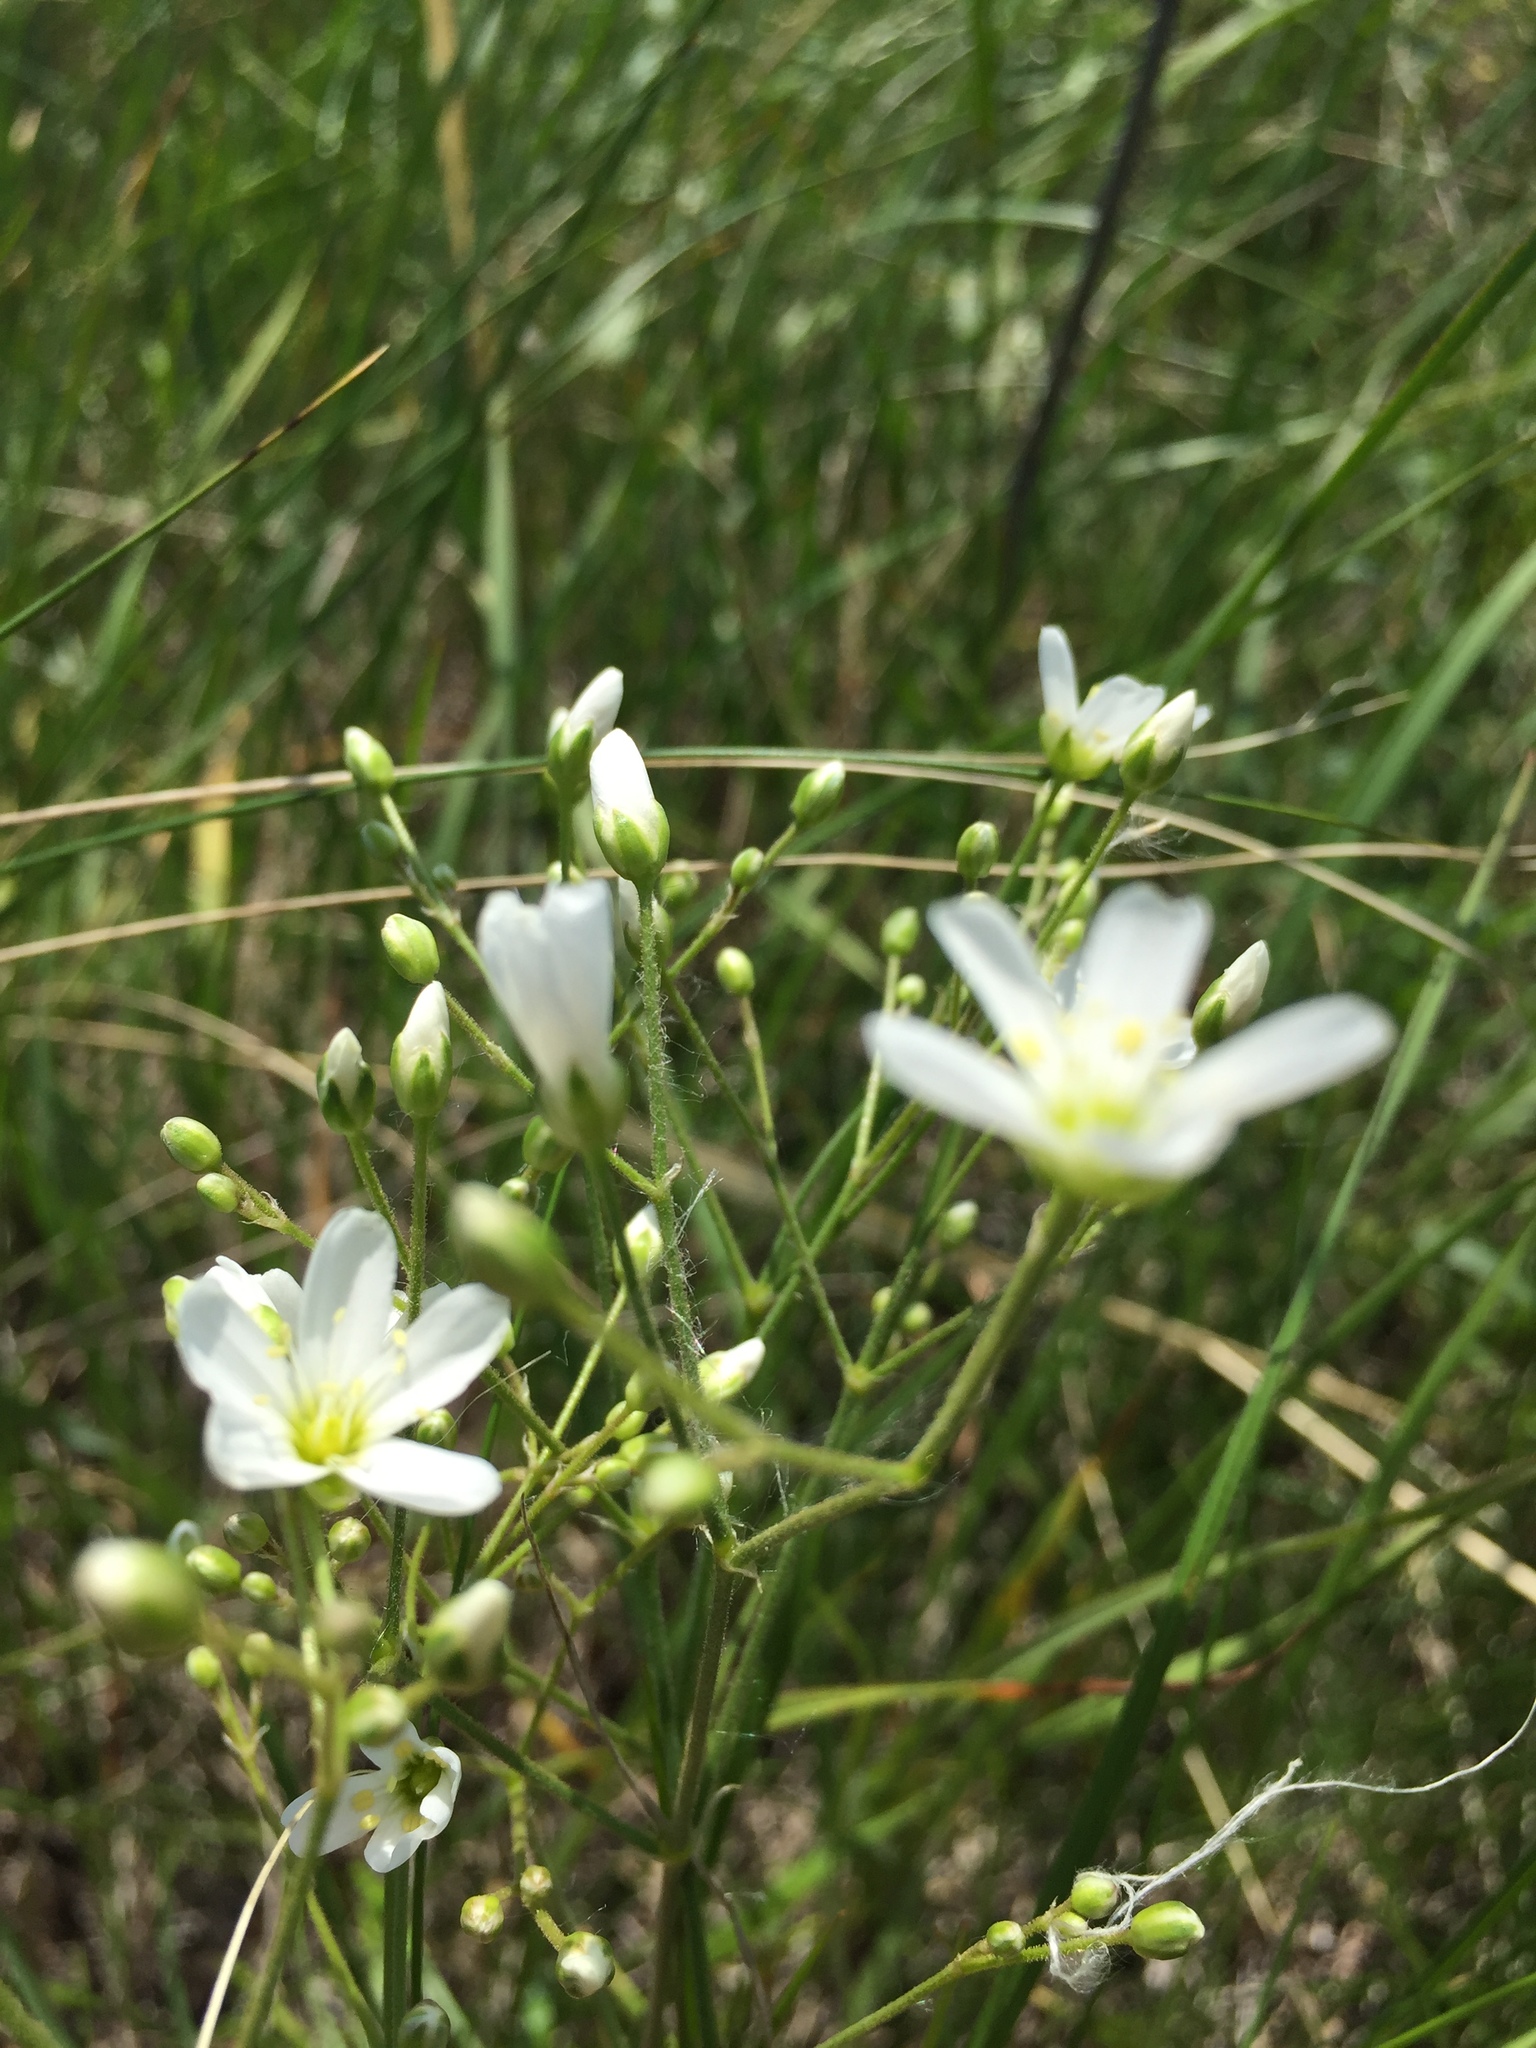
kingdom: Plantae
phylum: Tracheophyta
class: Magnoliopsida
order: Caryophyllales
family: Caryophyllaceae
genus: Eremogone
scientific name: Eremogone biebersteinii
